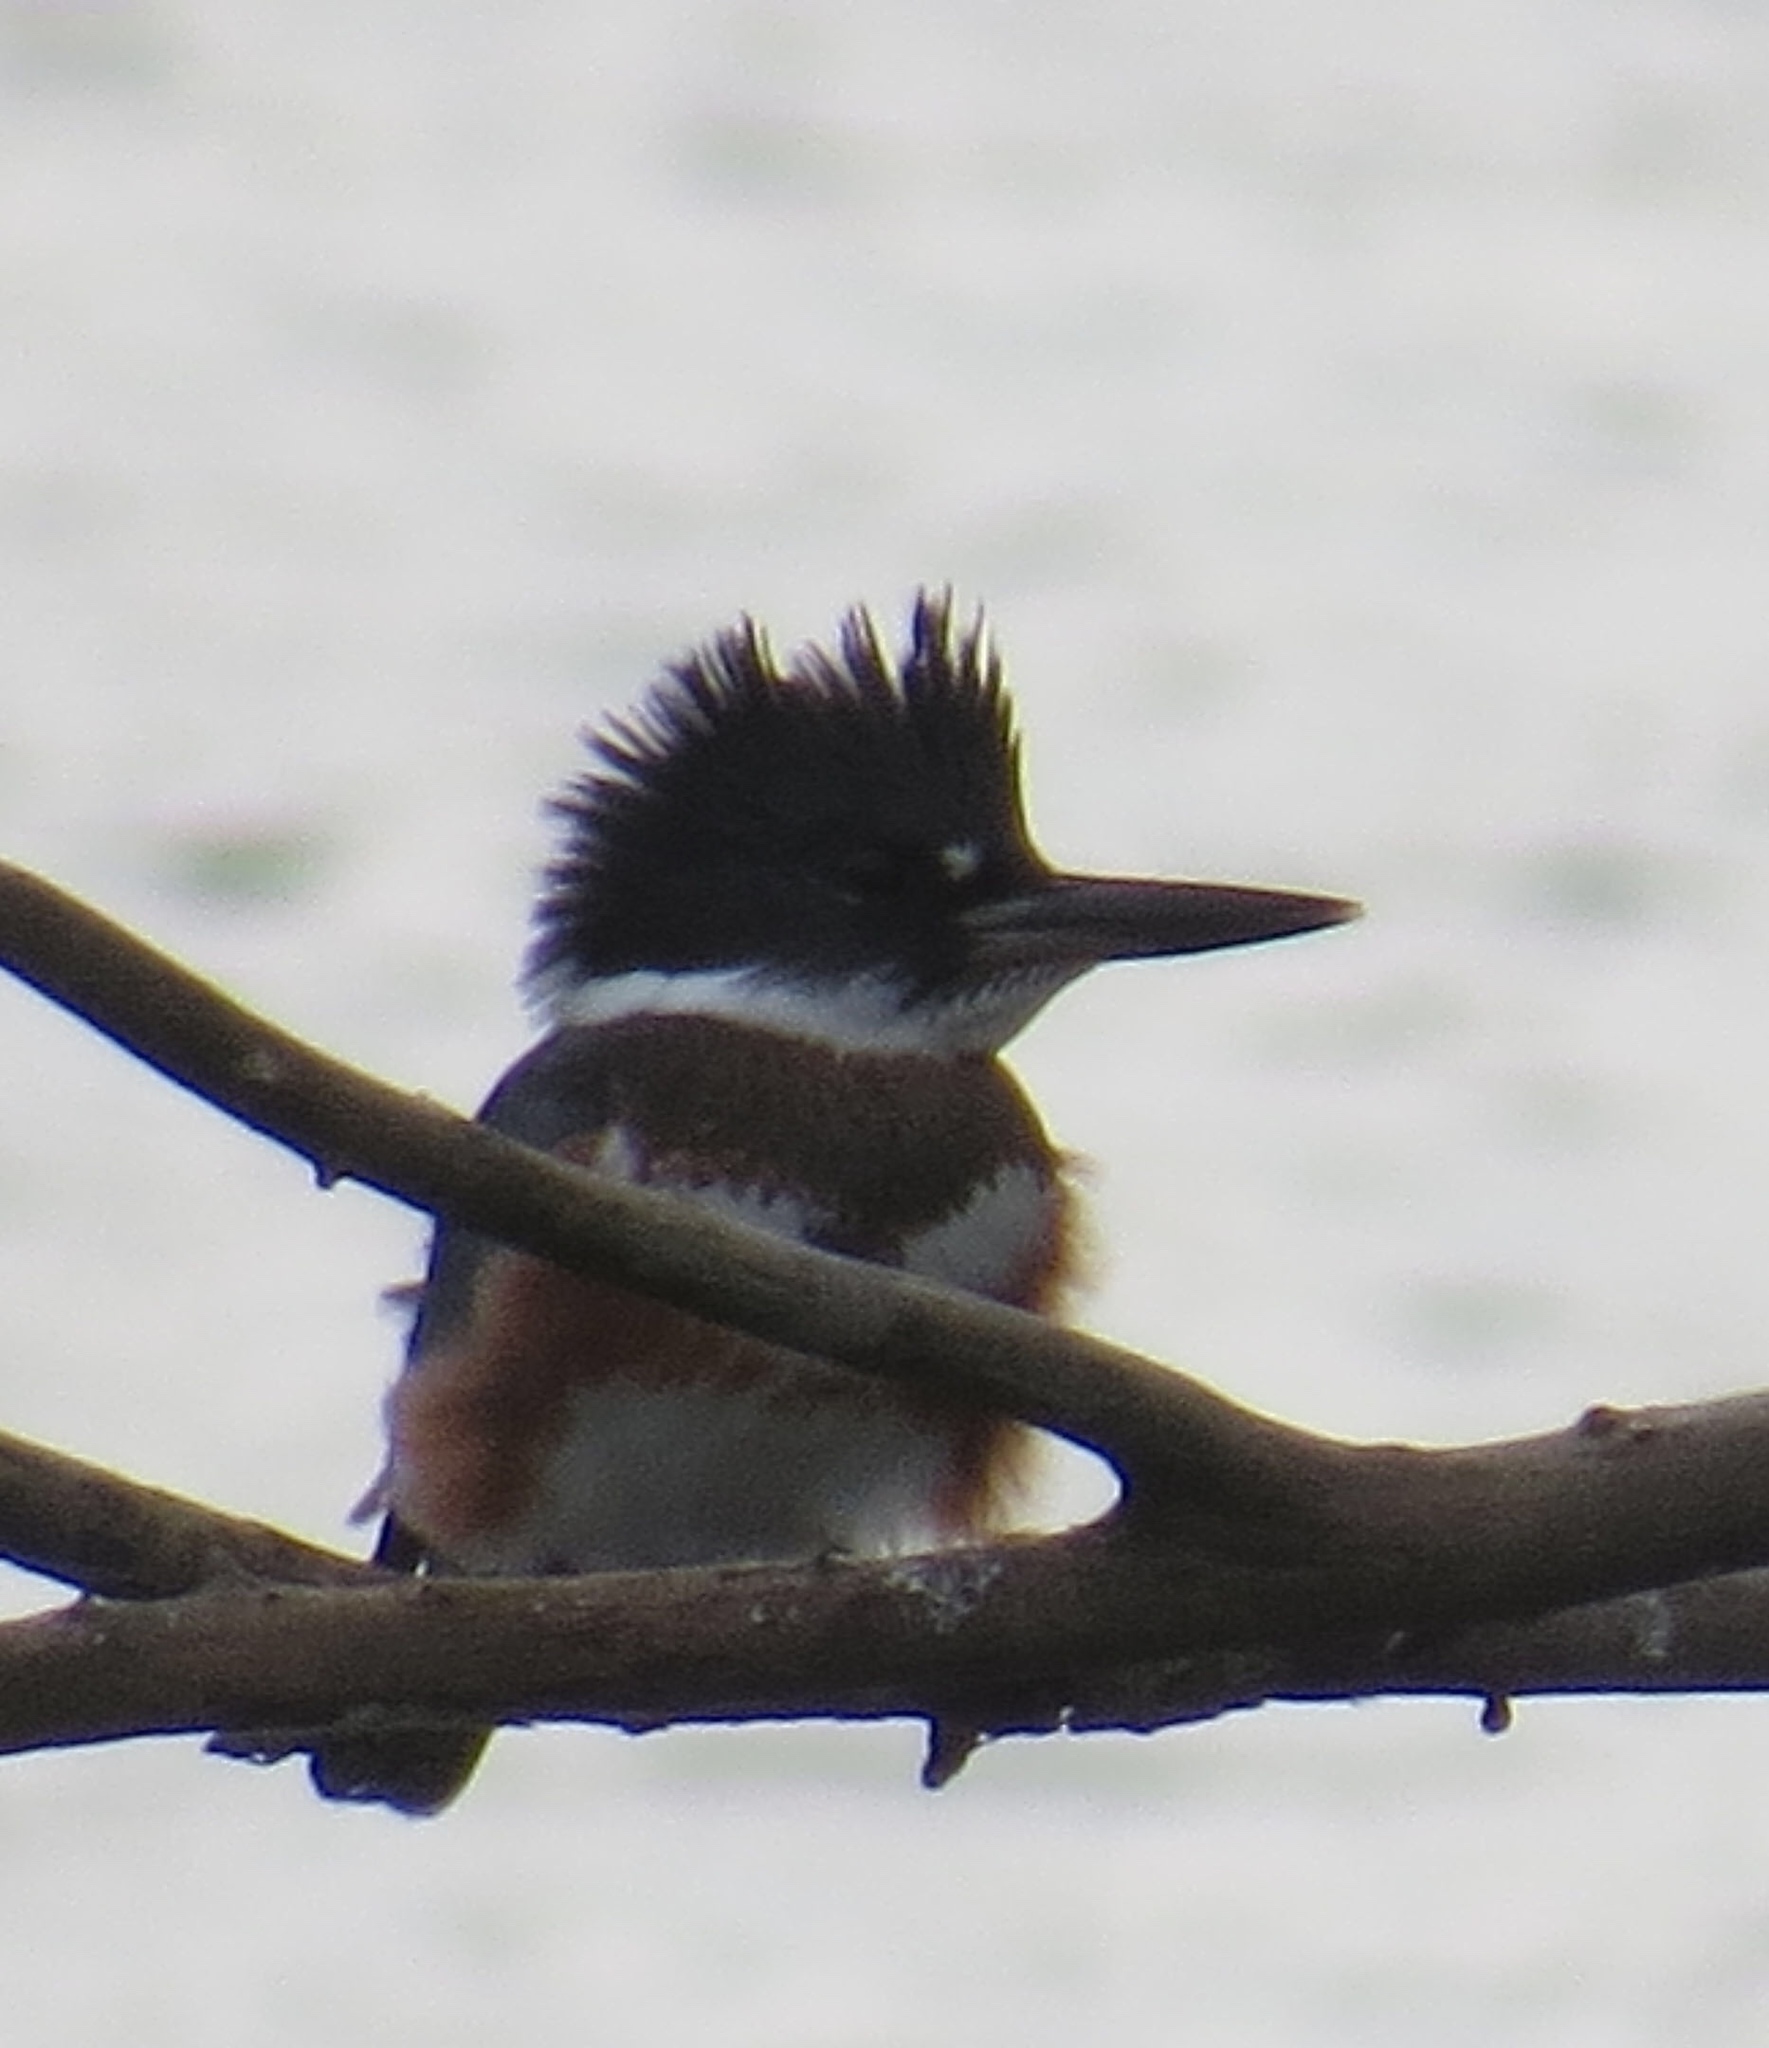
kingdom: Animalia
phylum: Chordata
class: Aves
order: Coraciiformes
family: Alcedinidae
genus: Megaceryle
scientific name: Megaceryle alcyon
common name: Belted kingfisher
